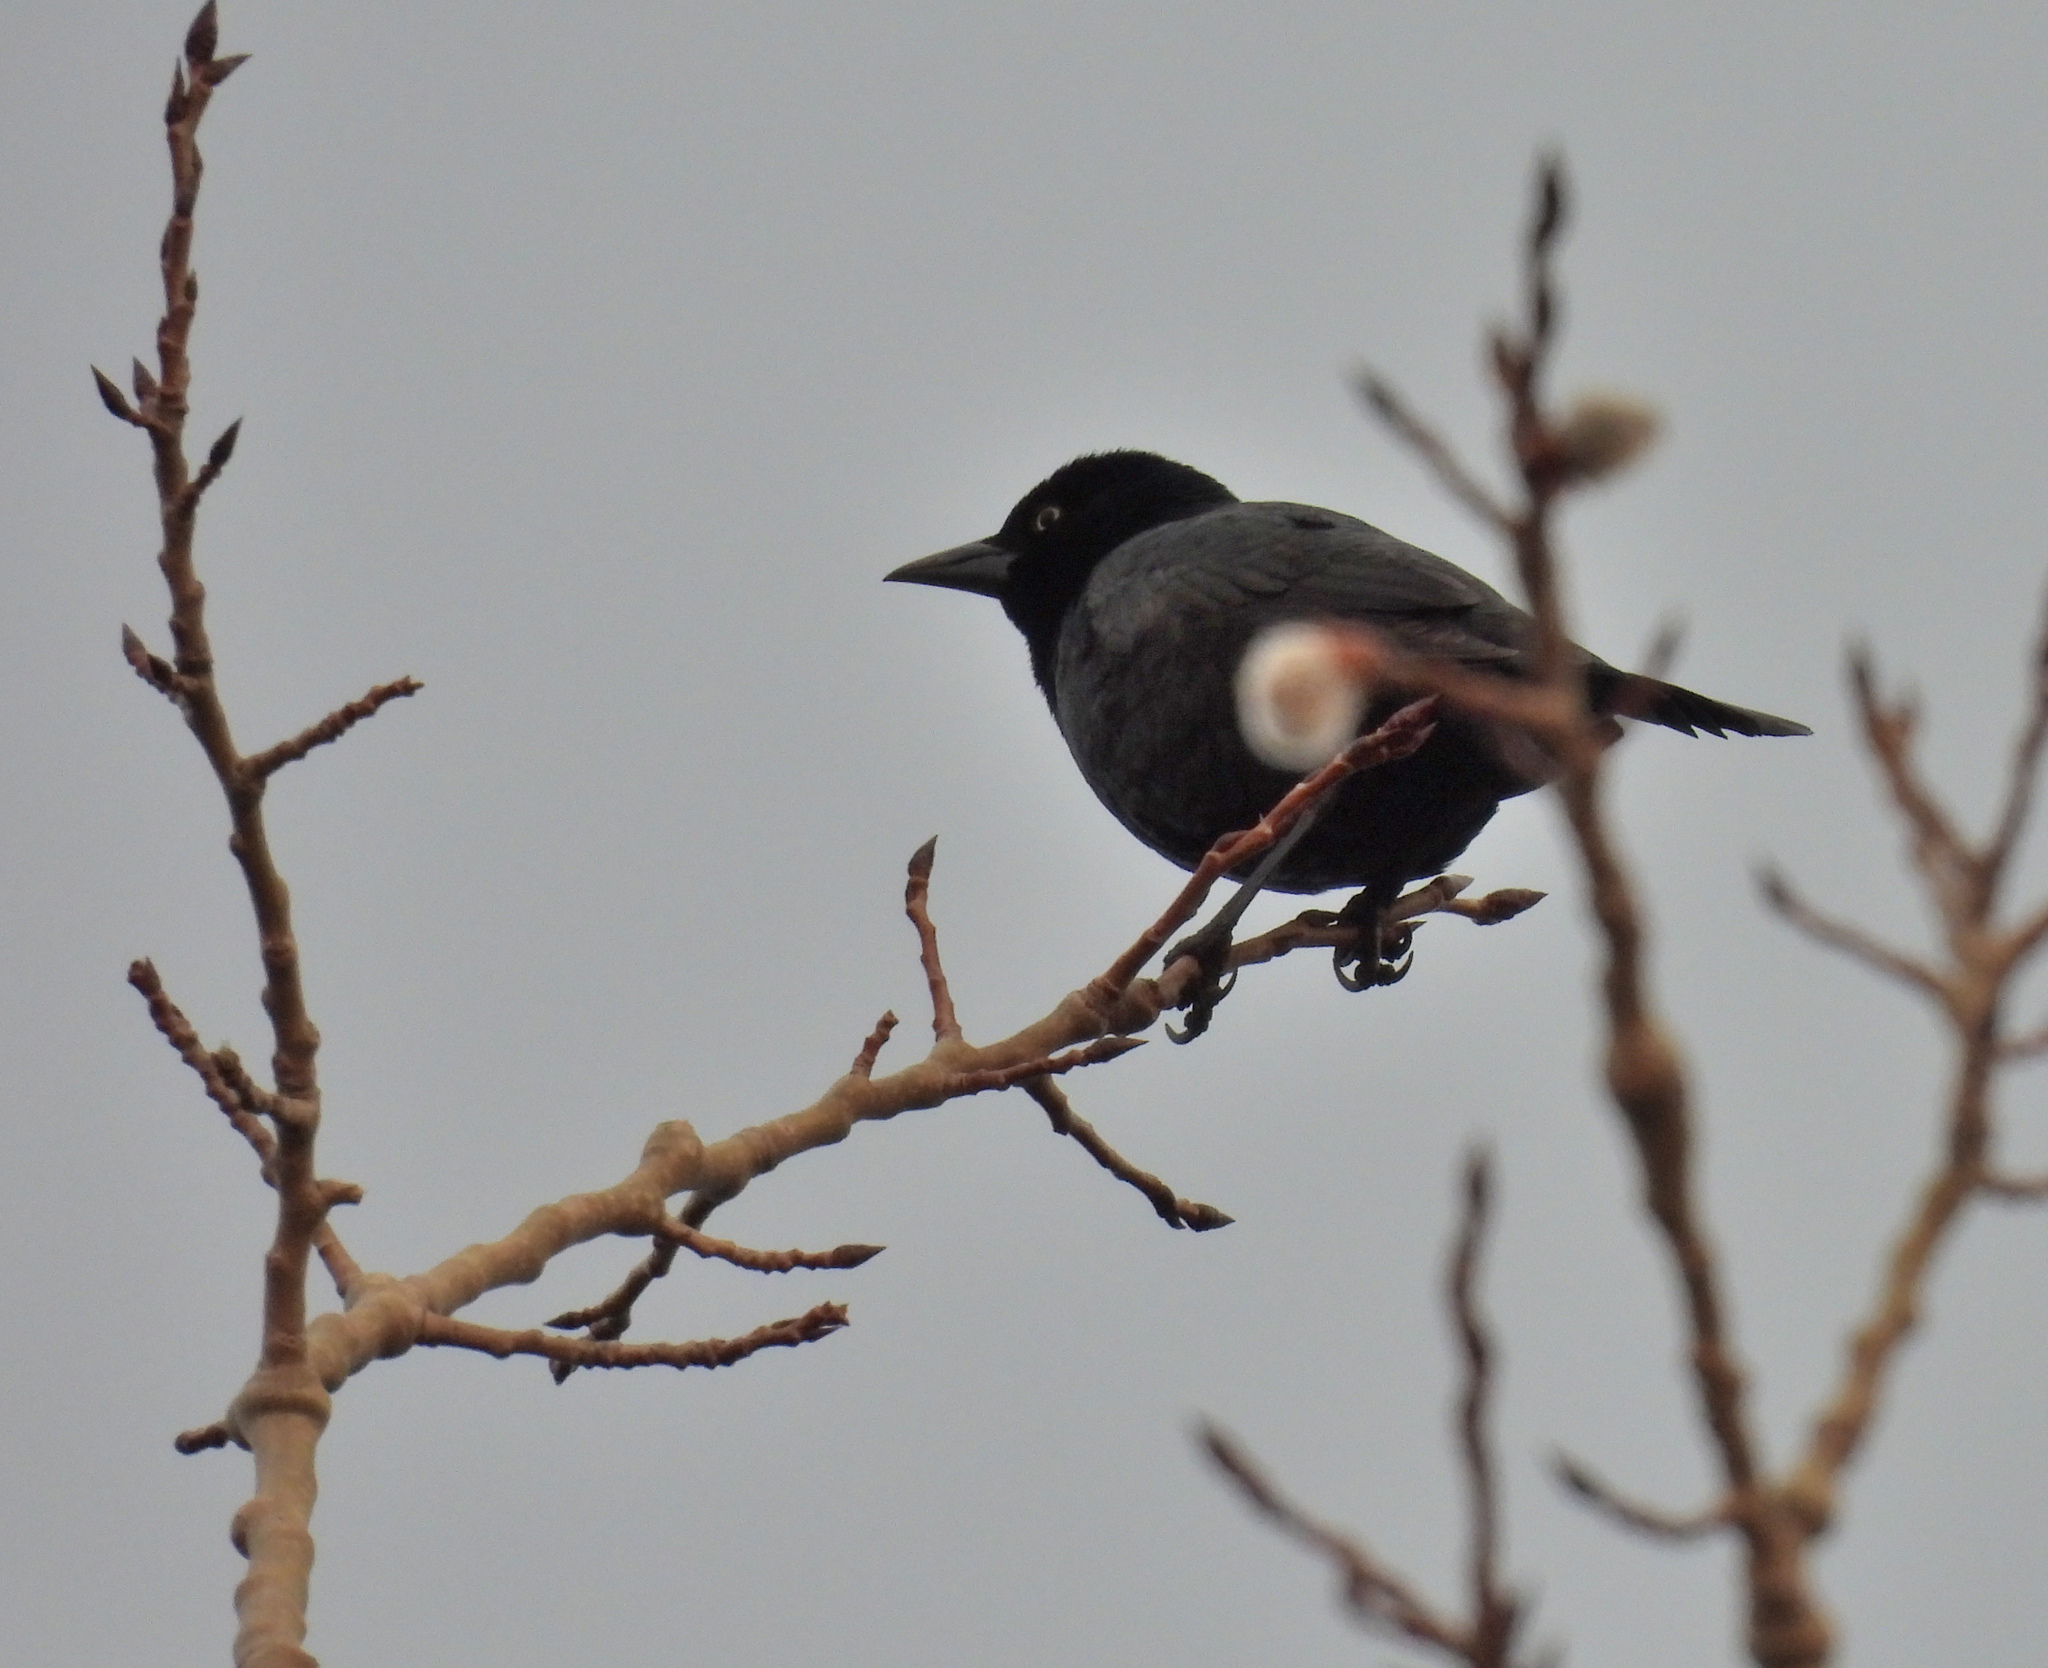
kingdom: Animalia
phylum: Chordata
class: Aves
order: Passeriformes
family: Icteridae
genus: Quiscalus
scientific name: Quiscalus quiscula
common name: Common grackle
